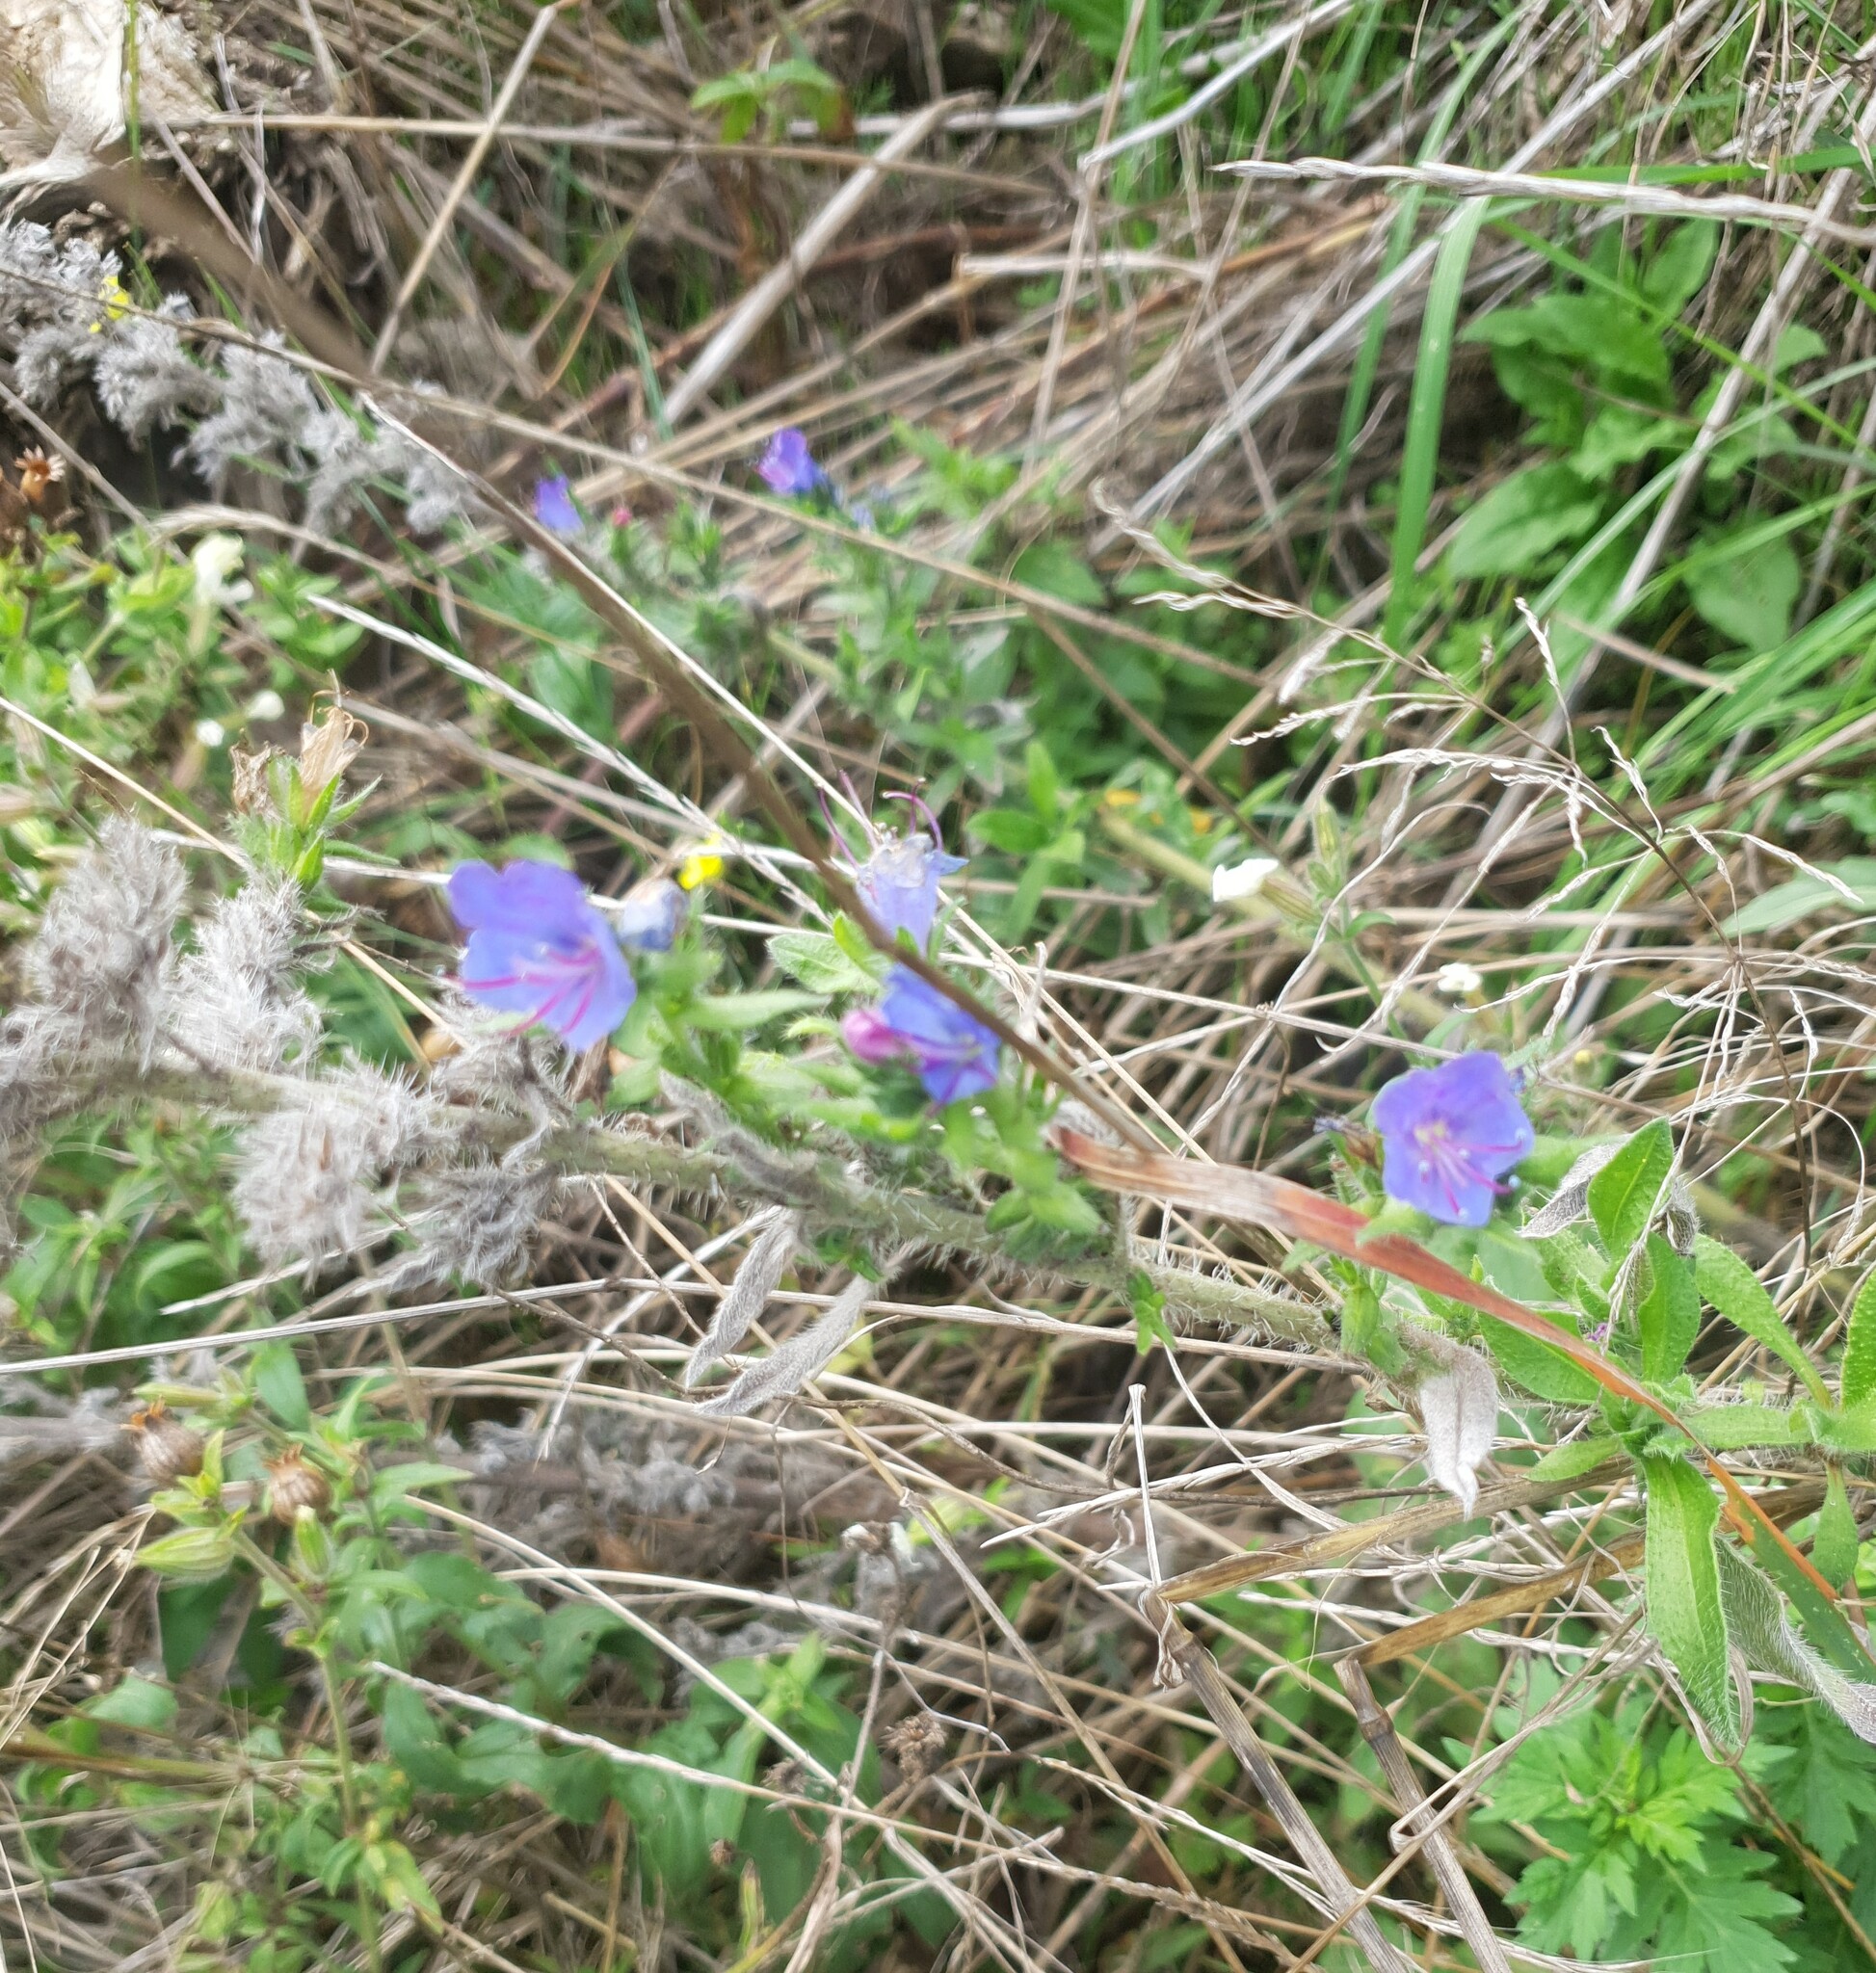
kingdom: Plantae
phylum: Tracheophyta
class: Magnoliopsida
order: Boraginales
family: Boraginaceae
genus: Echium
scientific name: Echium vulgare
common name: Common viper's bugloss
